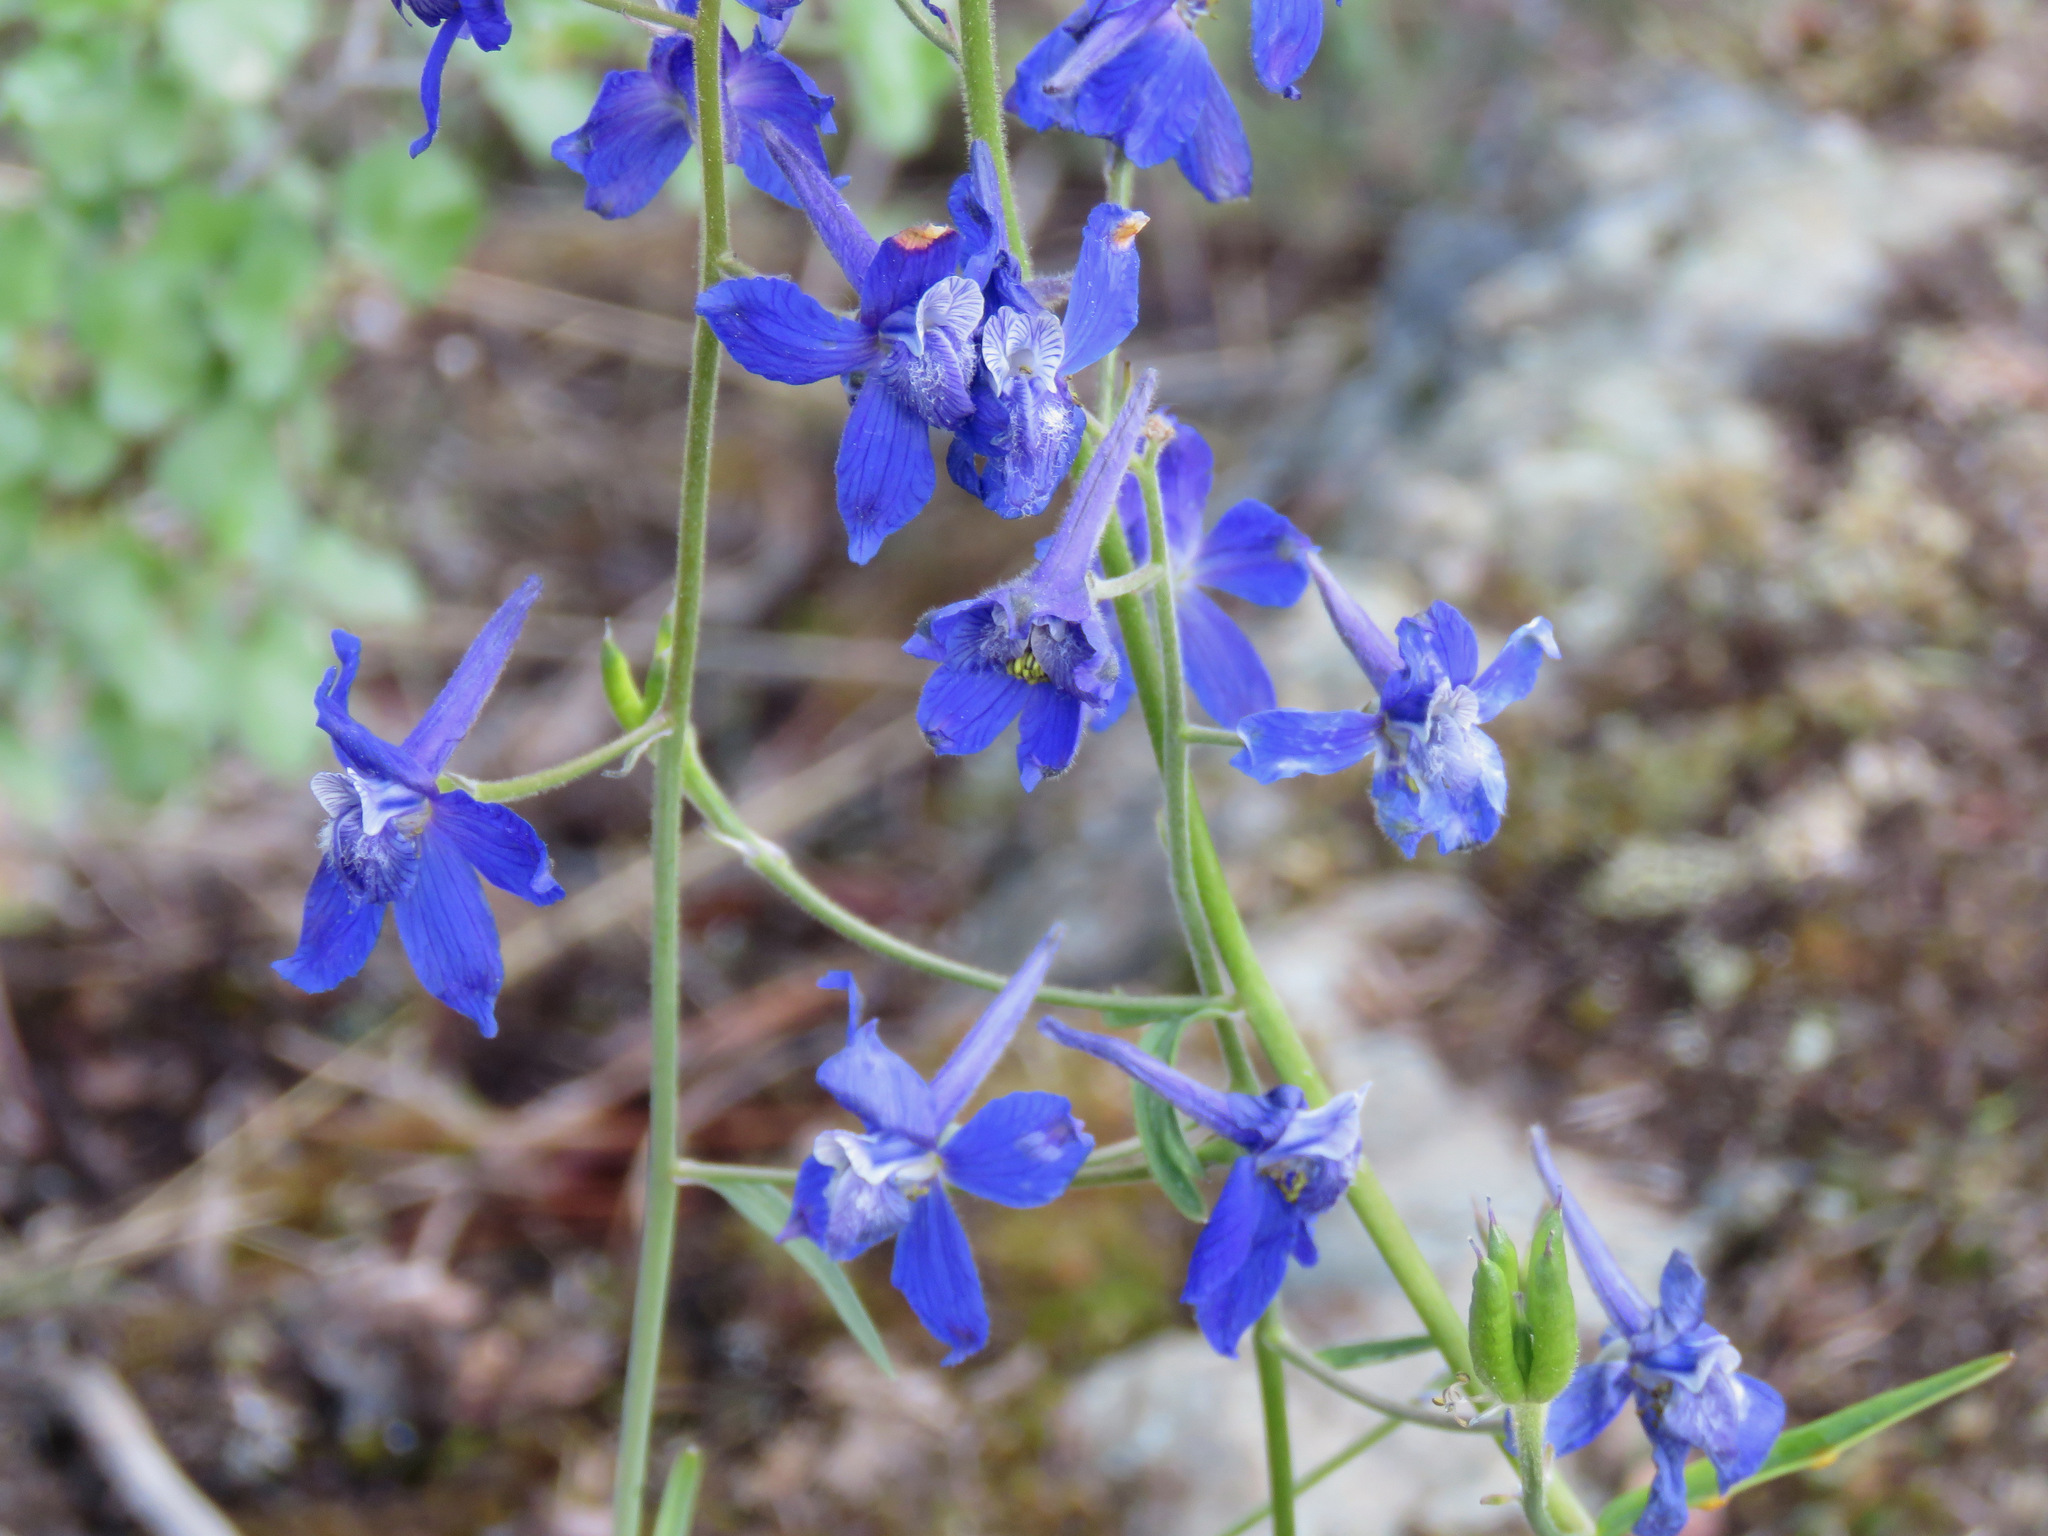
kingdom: Plantae
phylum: Tracheophyta
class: Magnoliopsida
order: Ranunculales
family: Ranunculaceae
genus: Delphinium
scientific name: Delphinium nuttallianum
